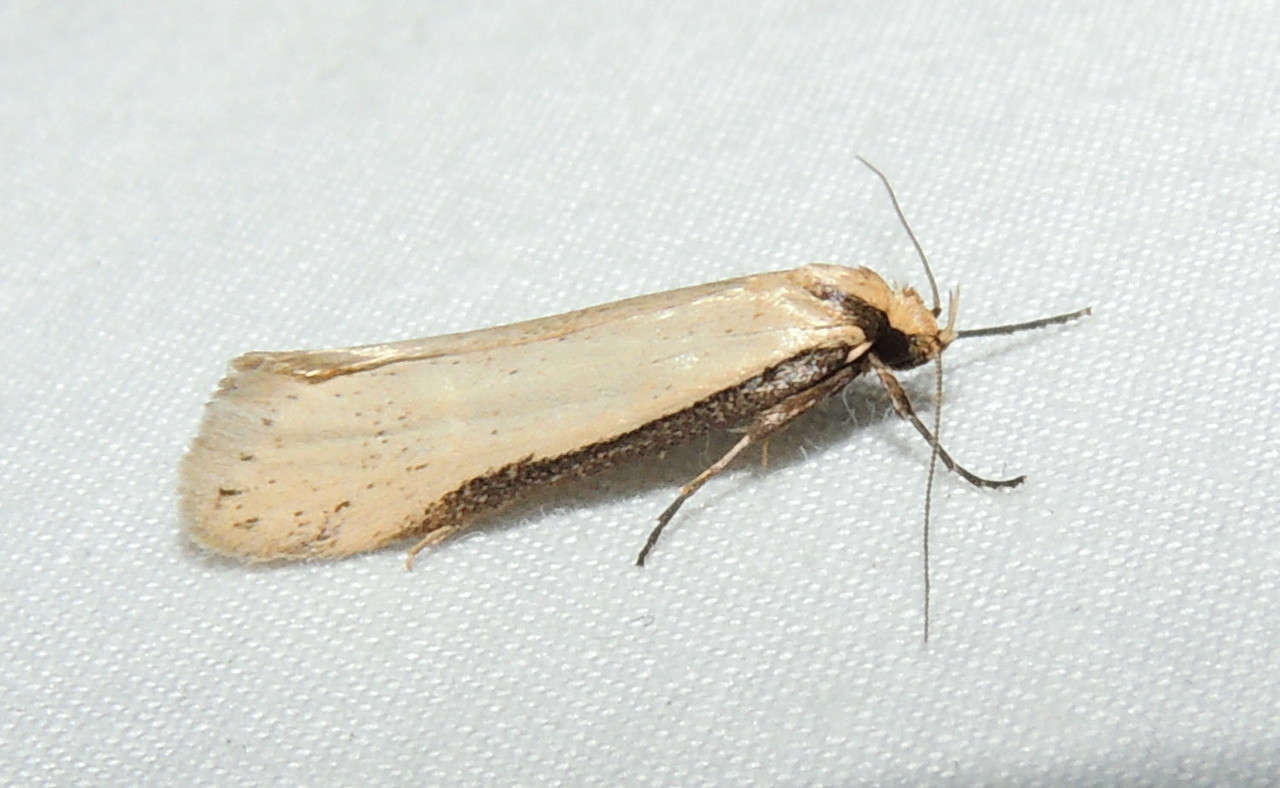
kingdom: Animalia
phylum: Arthropoda
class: Insecta
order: Lepidoptera
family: Oecophoridae
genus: Philobota
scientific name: Philobota xiphostola
